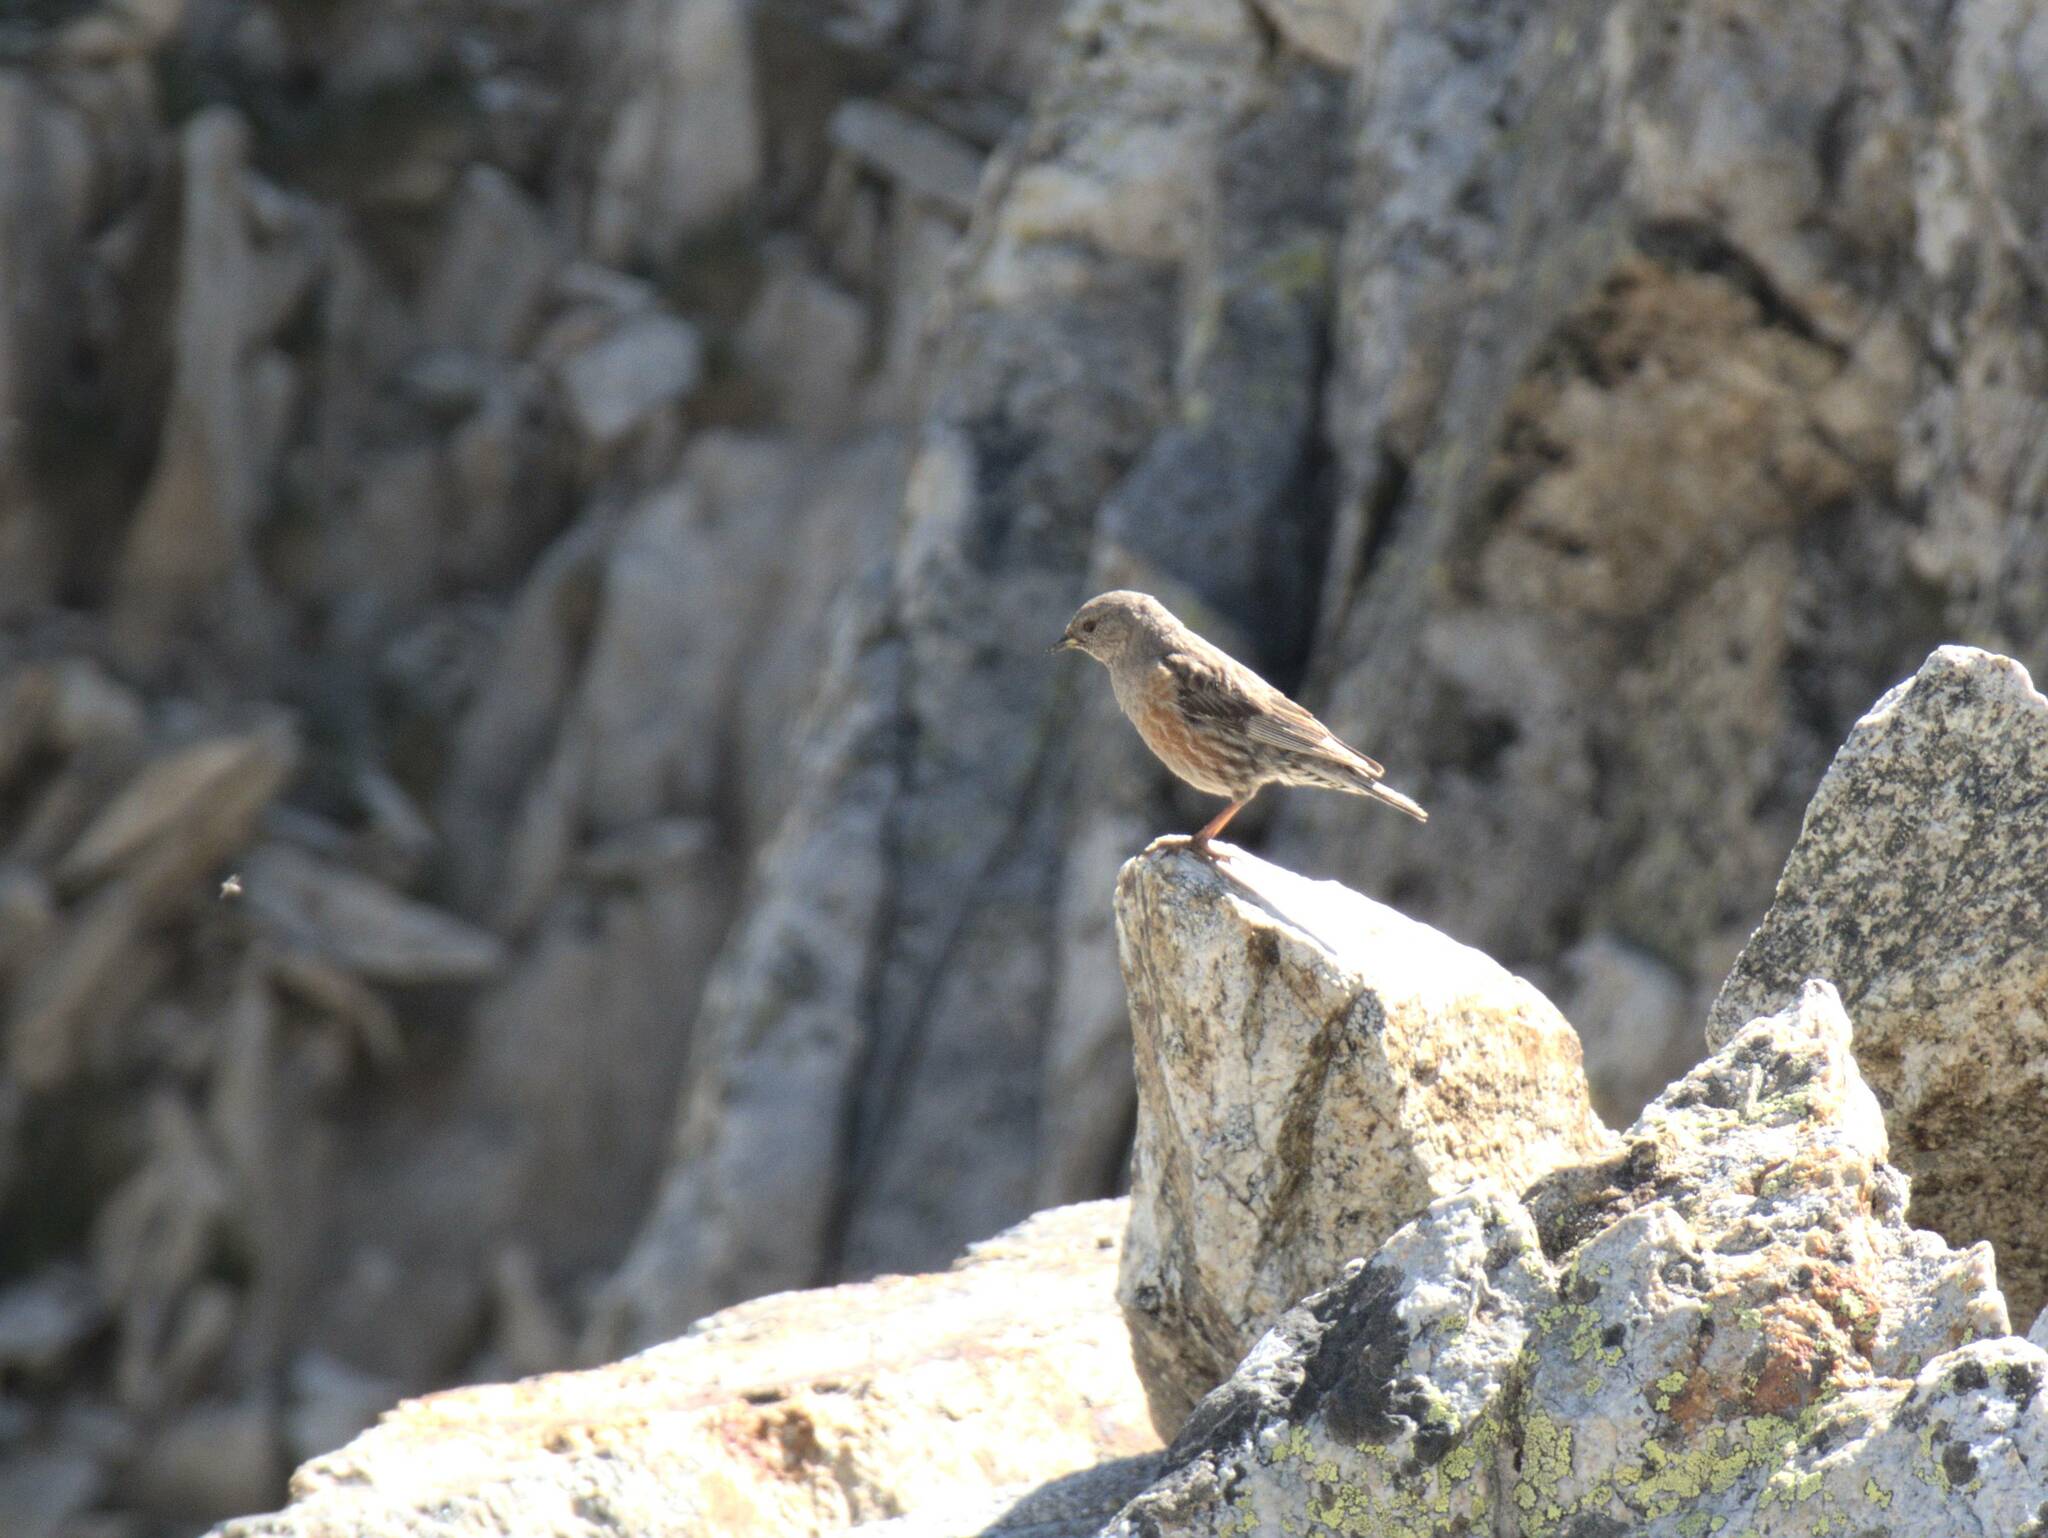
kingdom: Animalia
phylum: Chordata
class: Aves
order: Passeriformes
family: Prunellidae
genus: Prunella
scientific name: Prunella collaris
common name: Alpine accentor
